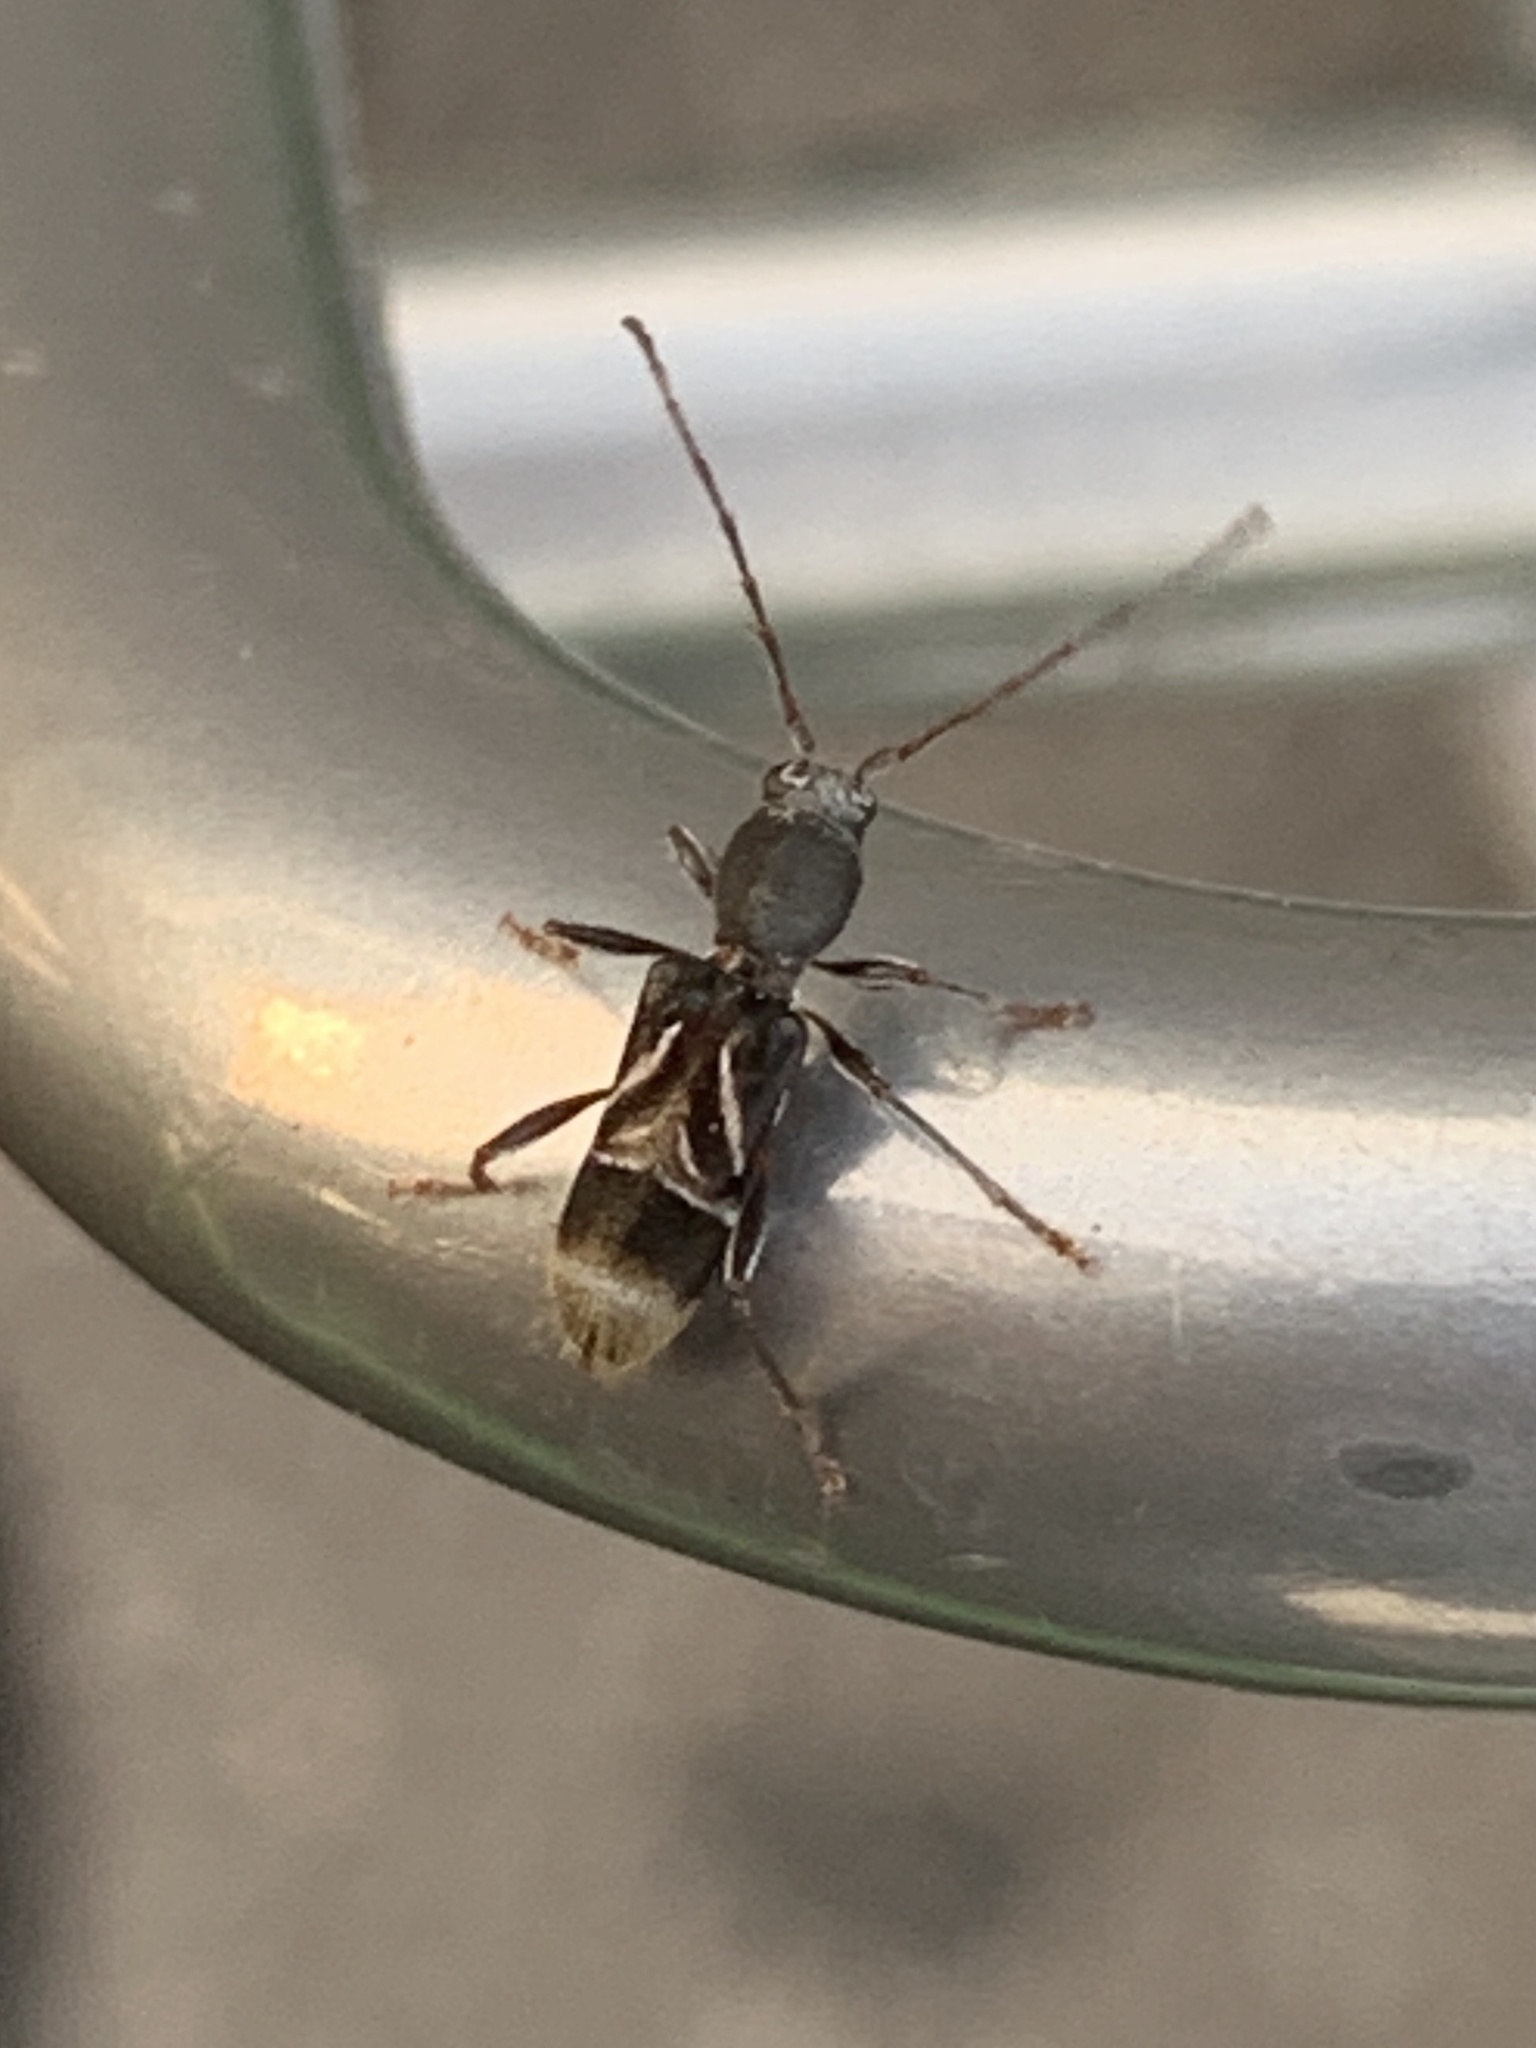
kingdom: Animalia
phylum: Arthropoda
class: Insecta
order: Coleoptera
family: Cerambycidae
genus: Cyrtophorus
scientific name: Cyrtophorus verrucosus
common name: Ant-like longhorn beetle
